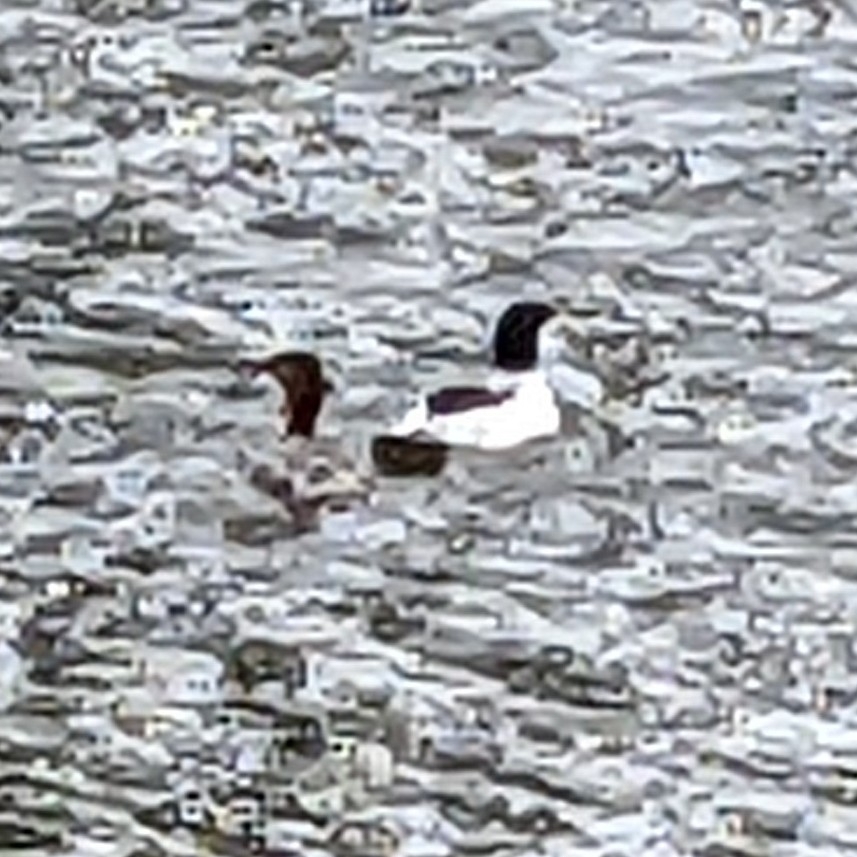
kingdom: Animalia
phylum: Chordata
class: Aves
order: Anseriformes
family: Anatidae
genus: Mergus
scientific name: Mergus merganser
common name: Common merganser
